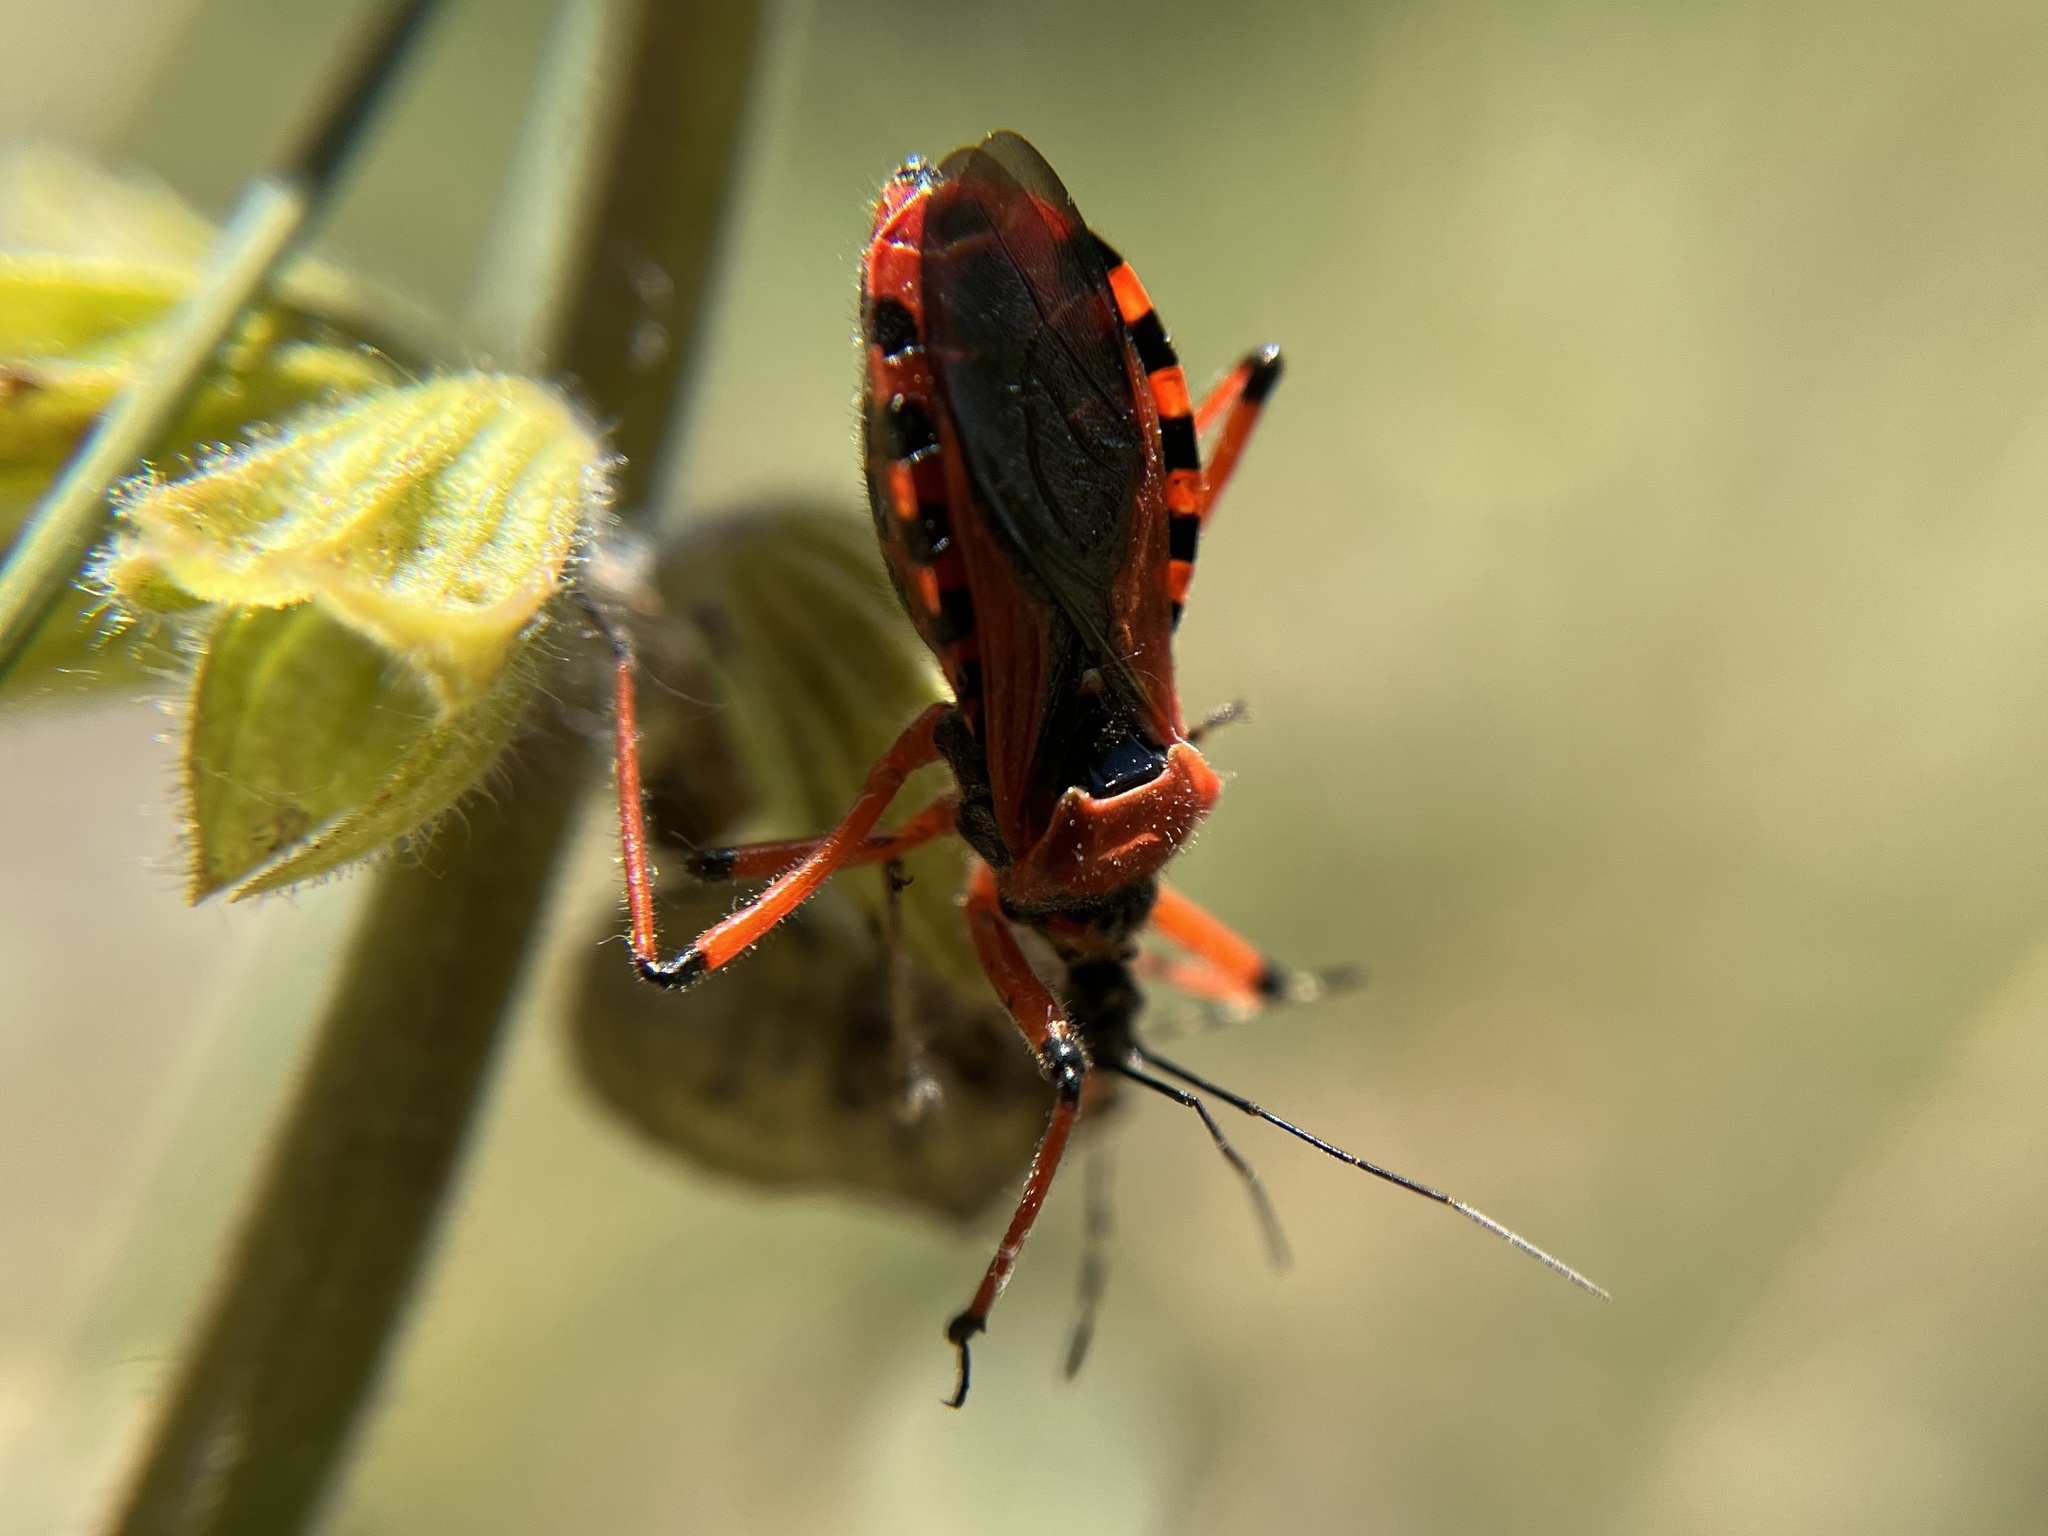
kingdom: Animalia
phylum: Arthropoda
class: Insecta
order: Hemiptera
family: Reduviidae
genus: Rhynocoris
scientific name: Rhynocoris iracundus
